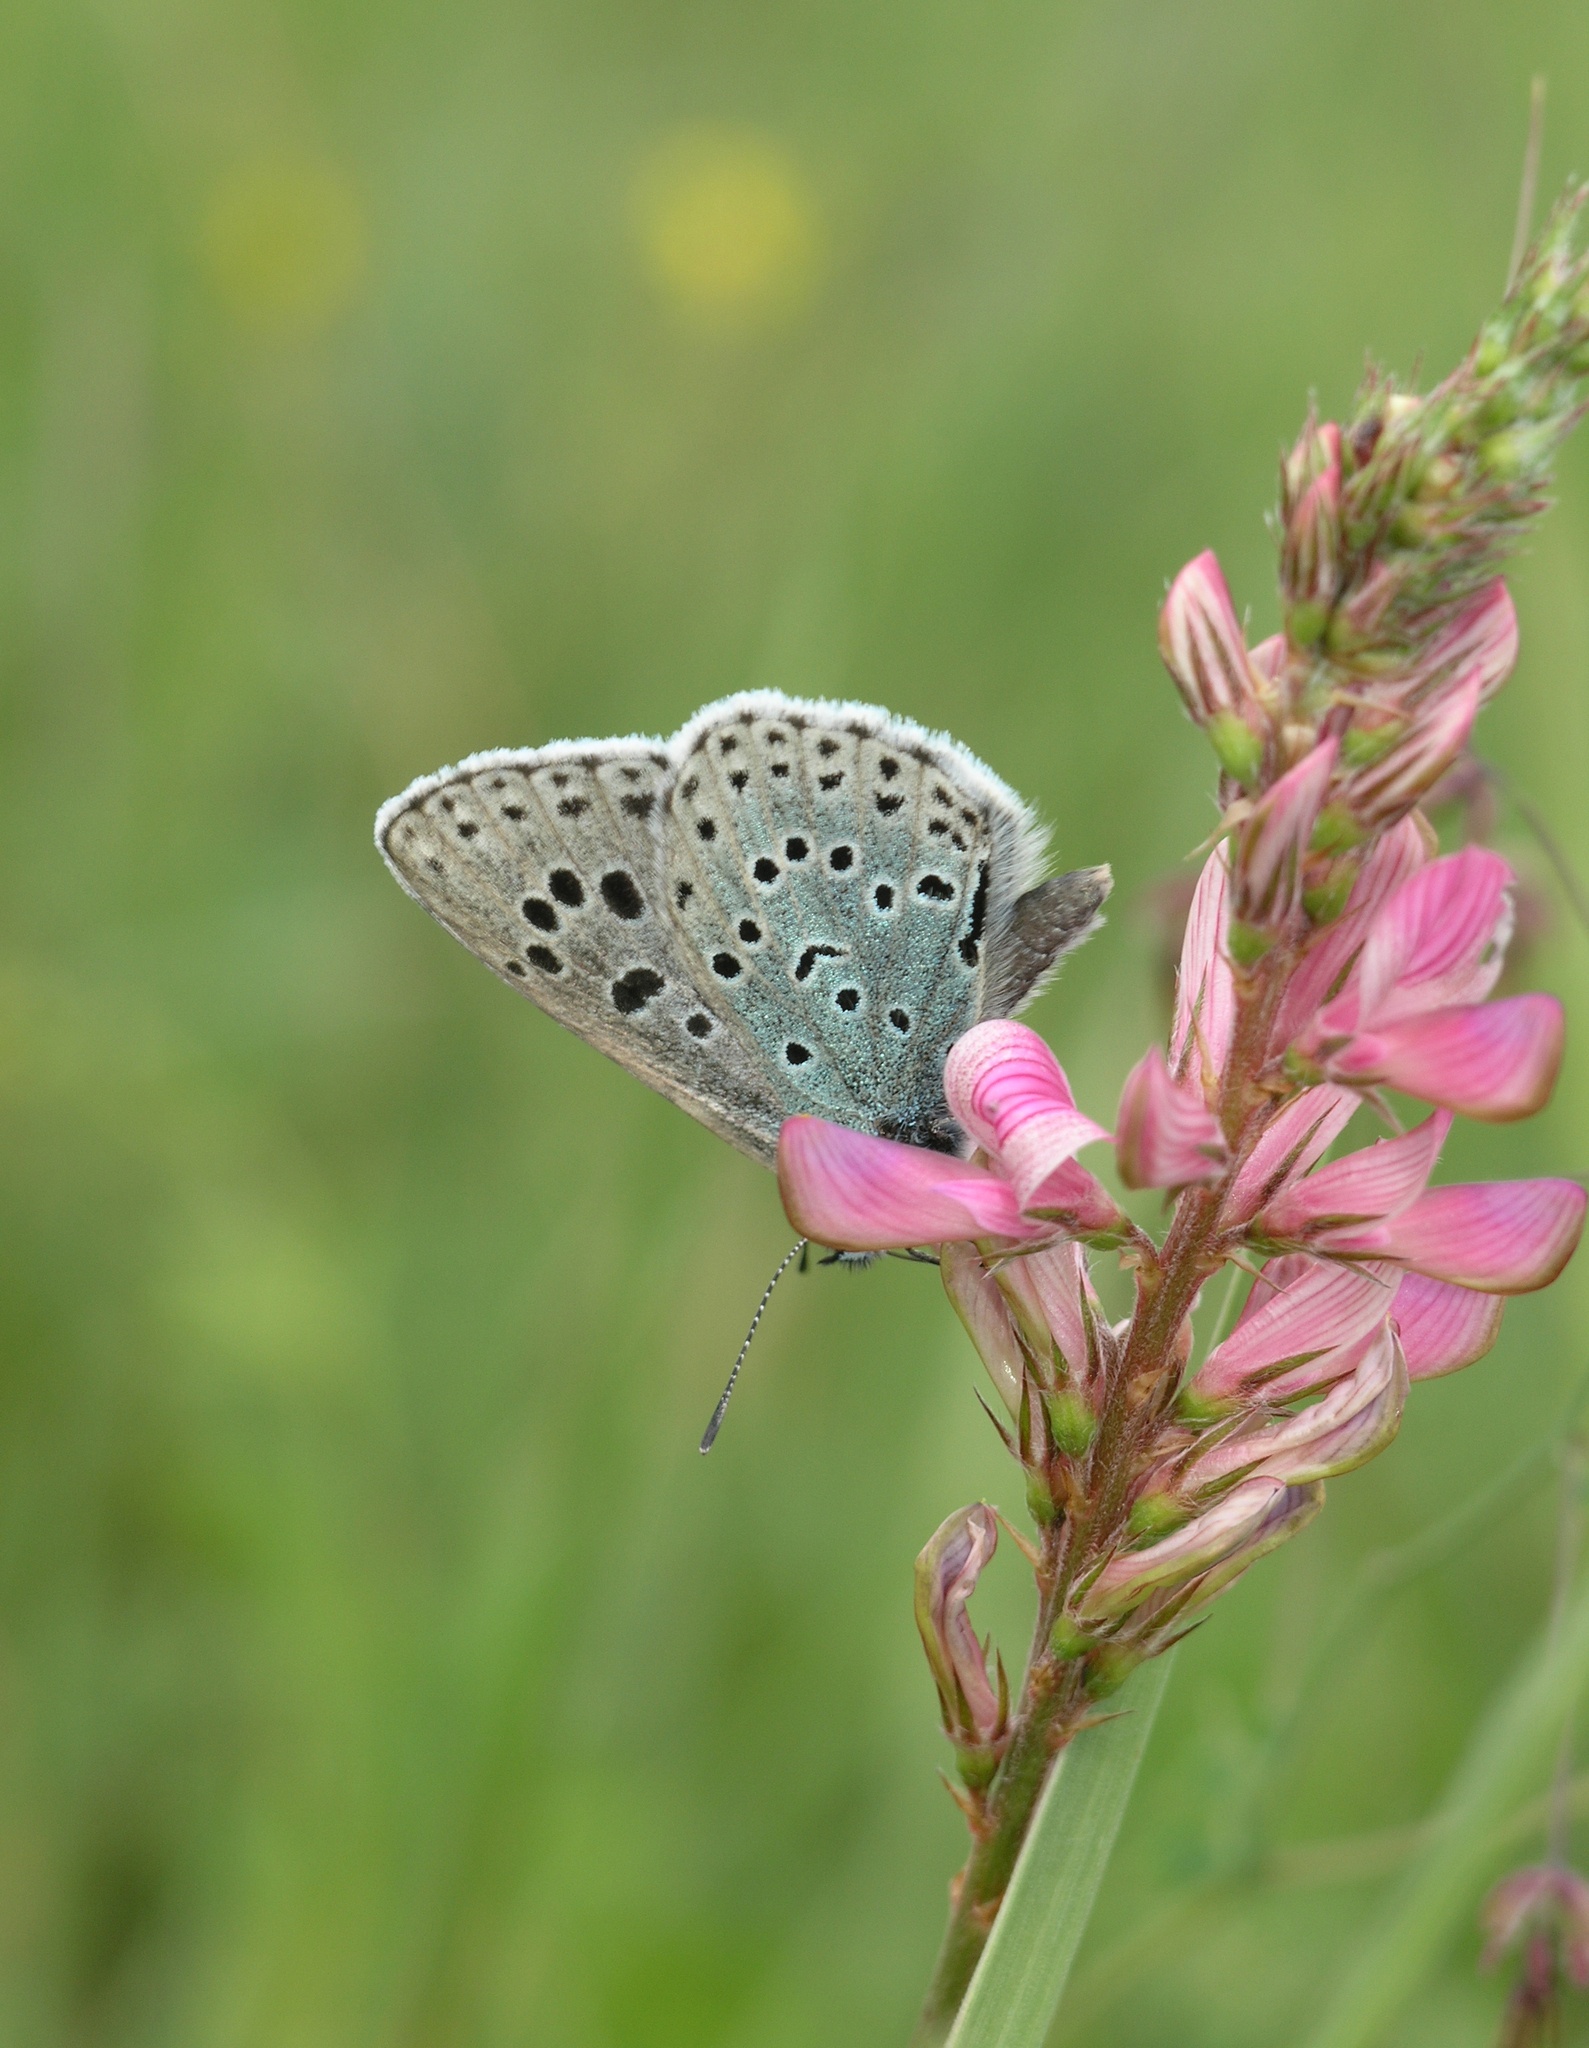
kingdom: Plantae
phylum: Tracheophyta
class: Magnoliopsida
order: Fabales
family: Fabaceae
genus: Onobrychis
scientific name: Onobrychis arenaria
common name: Sand esparcet
